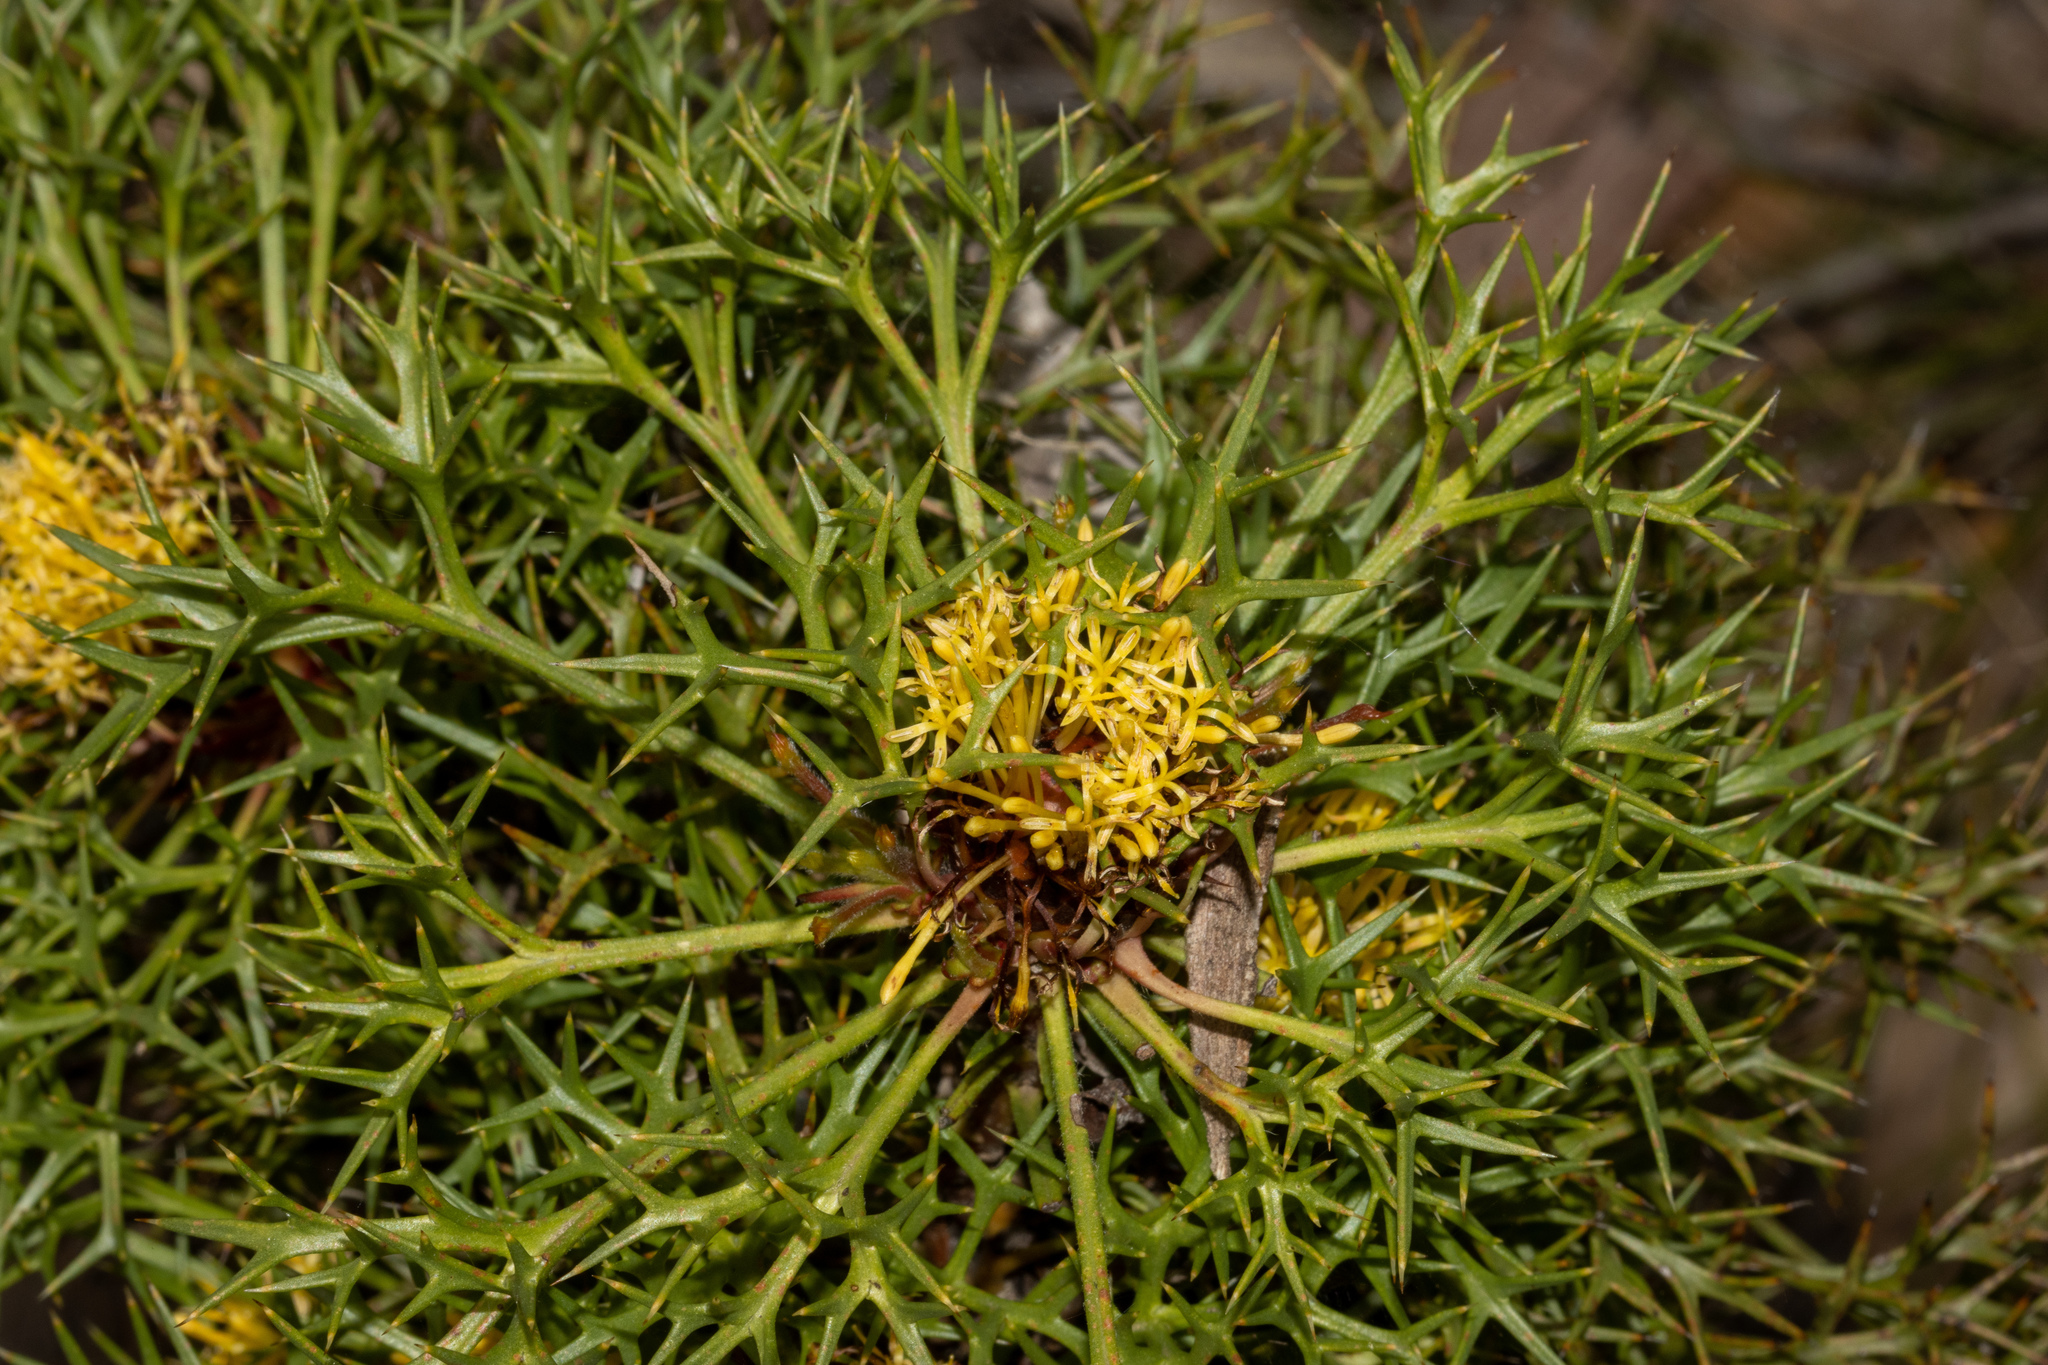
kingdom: Plantae
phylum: Tracheophyta
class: Magnoliopsida
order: Proteales
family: Proteaceae
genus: Isopogon
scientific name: Isopogon ceratophyllus
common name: Horny cone-bush
